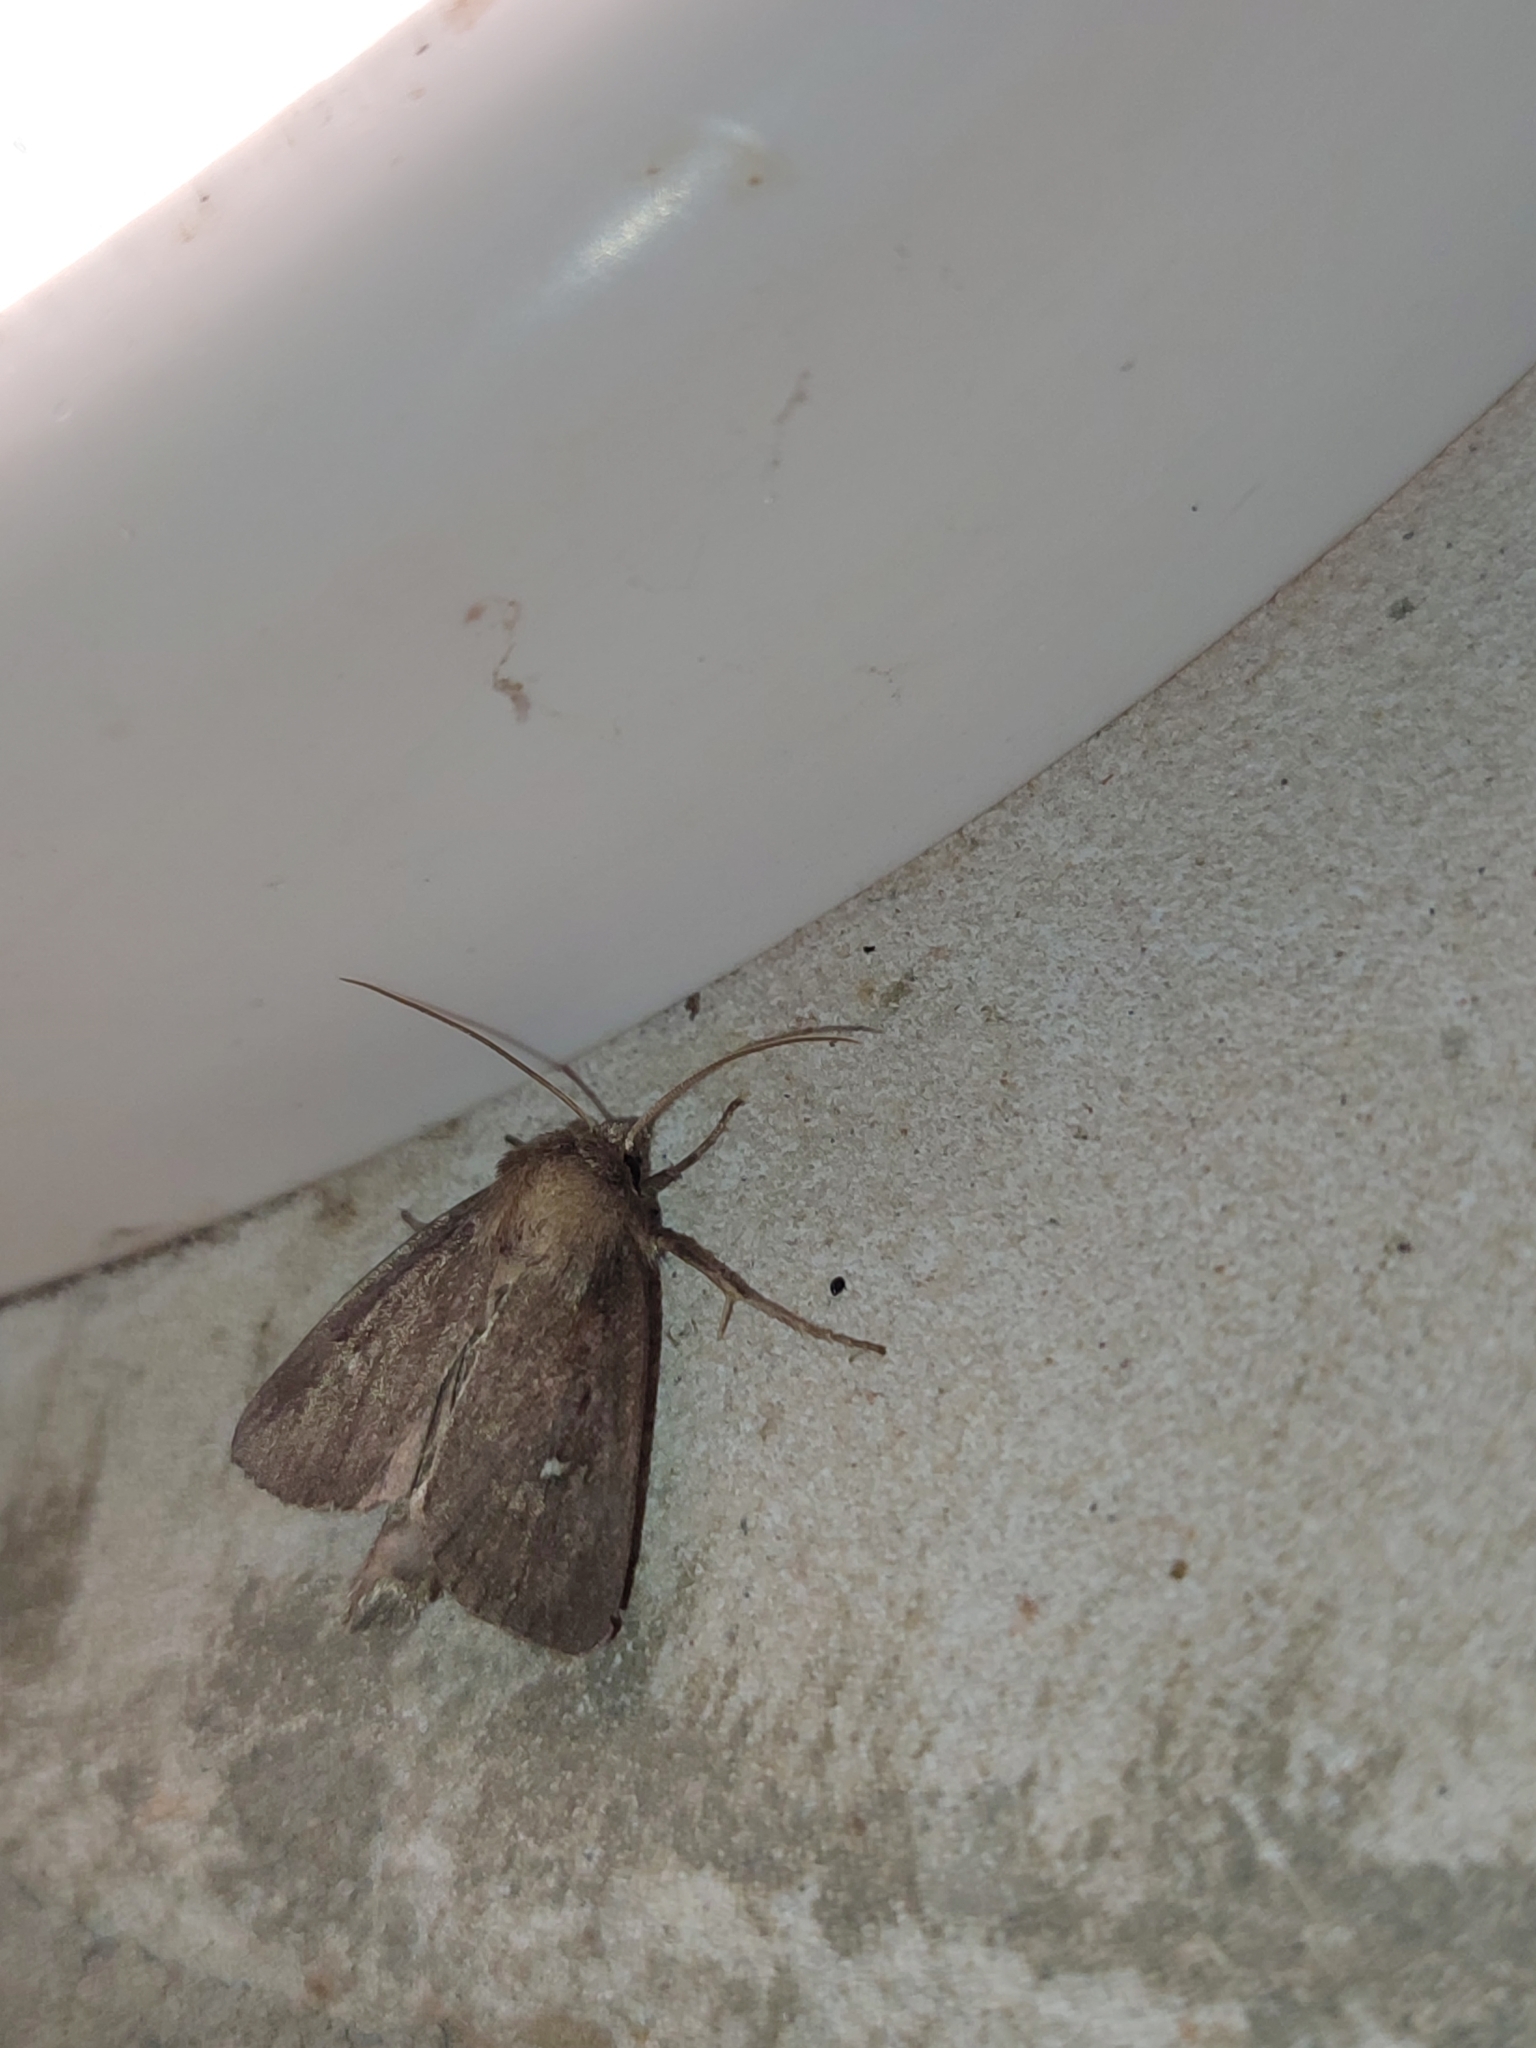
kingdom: Animalia
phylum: Arthropoda
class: Insecta
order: Lepidoptera
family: Noctuidae
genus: Lenisa
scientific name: Lenisa geminipuncta
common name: Twin-spotted wainscot
